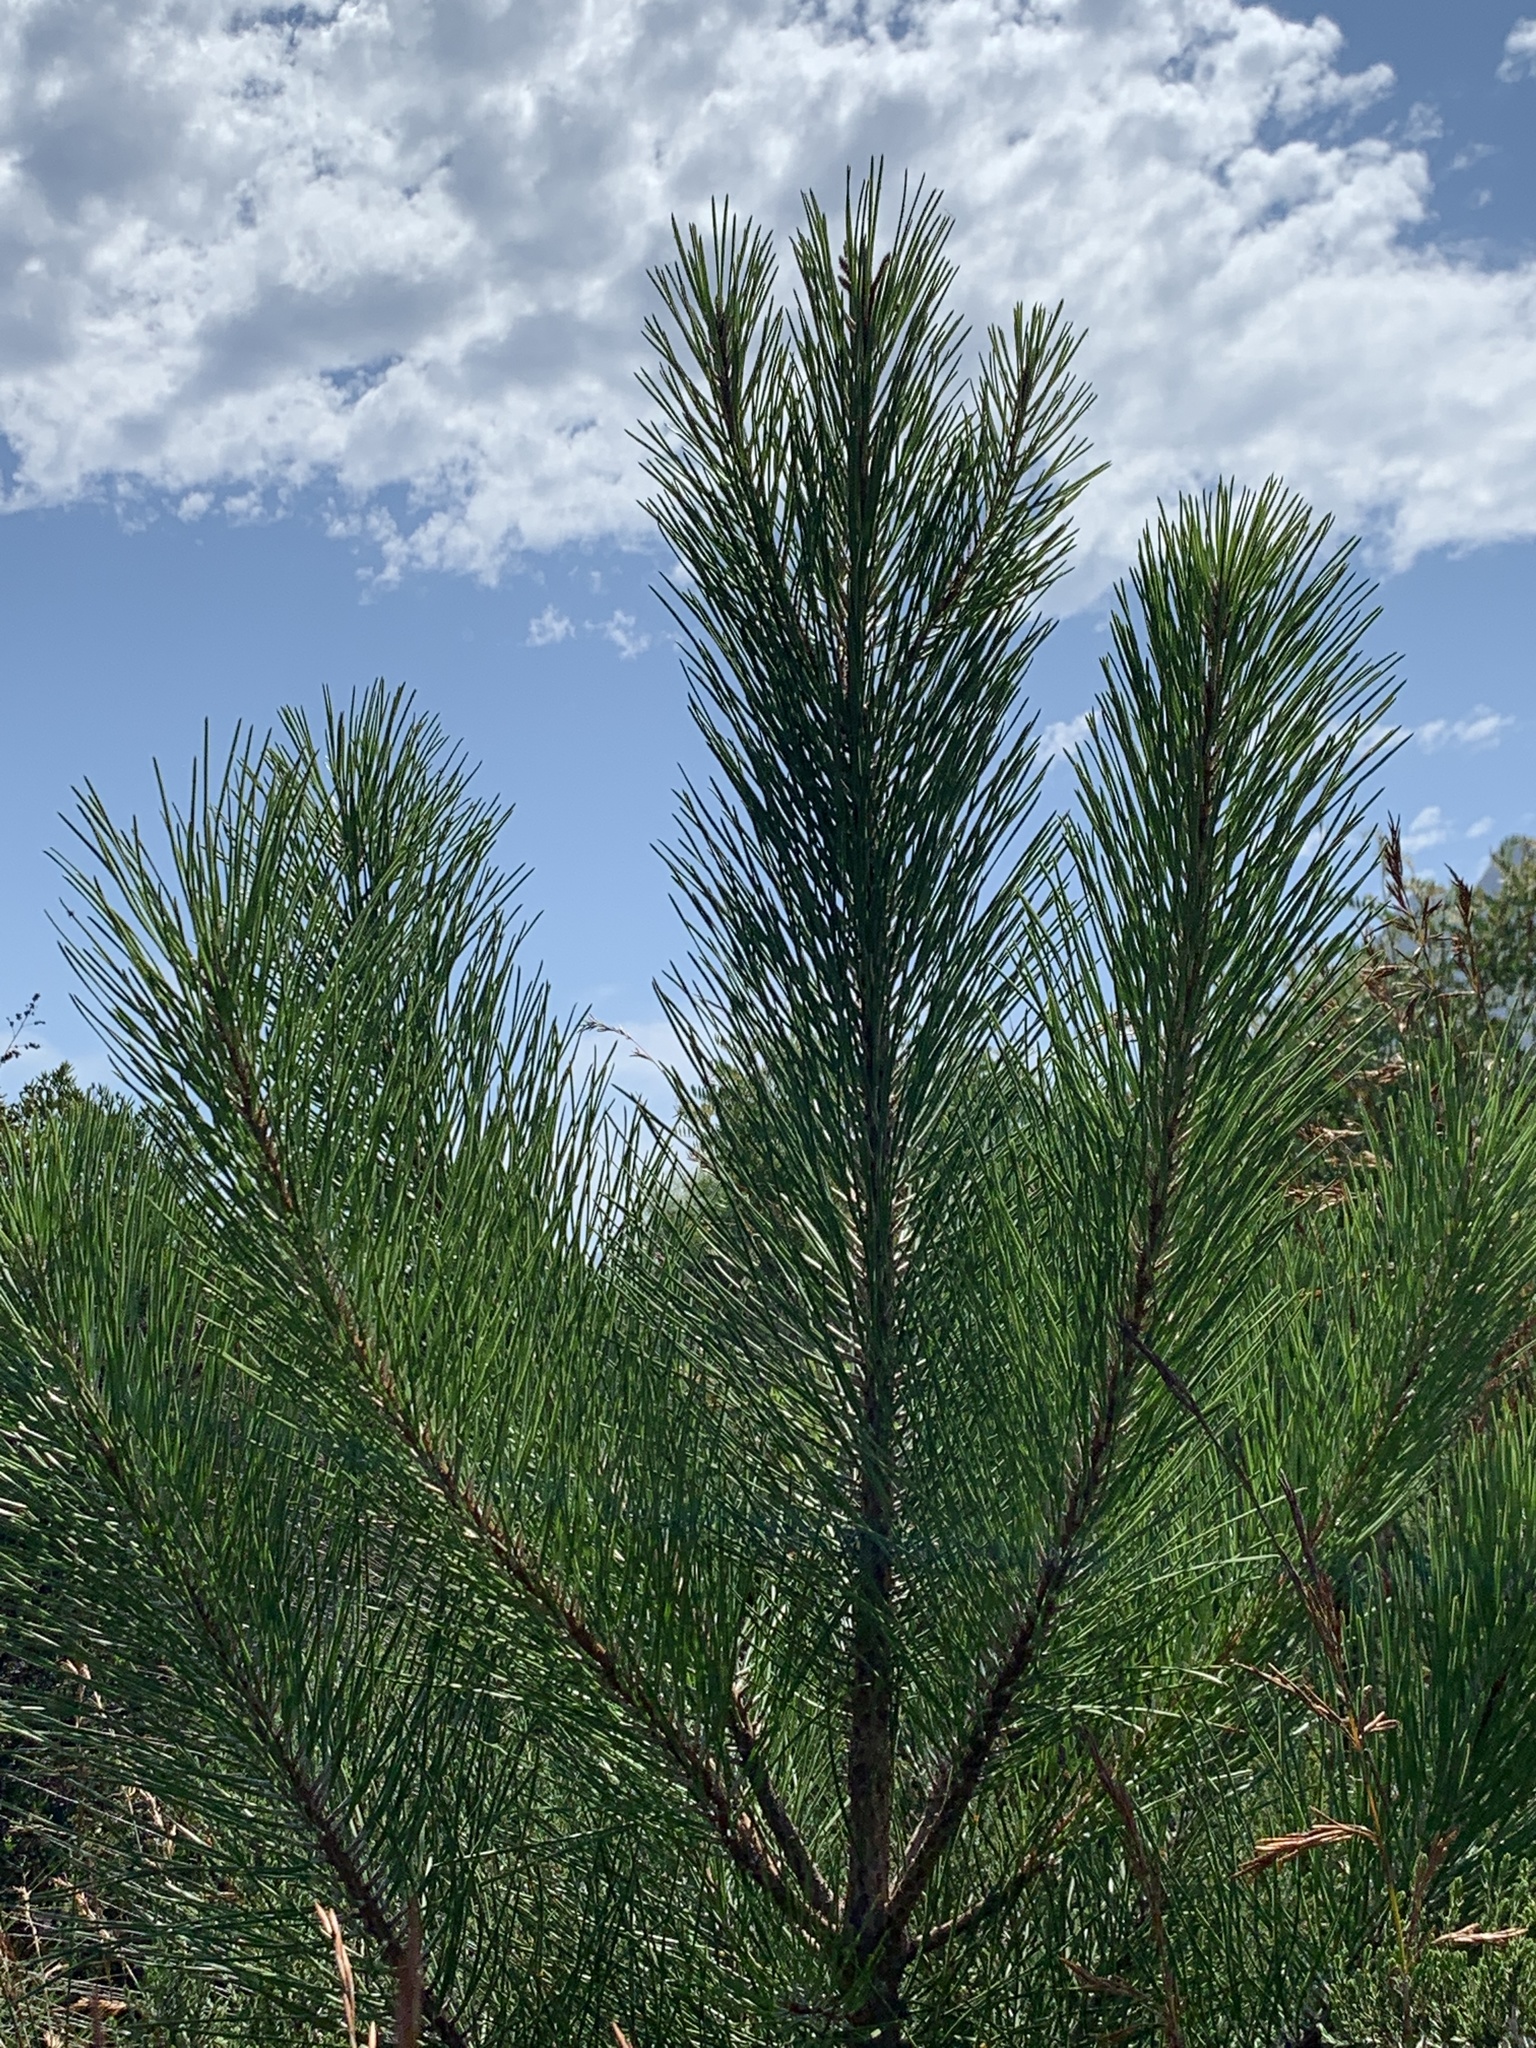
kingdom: Plantae
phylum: Tracheophyta
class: Pinopsida
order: Pinales
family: Pinaceae
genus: Pinus
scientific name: Pinus pinaster
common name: Maritime pine
